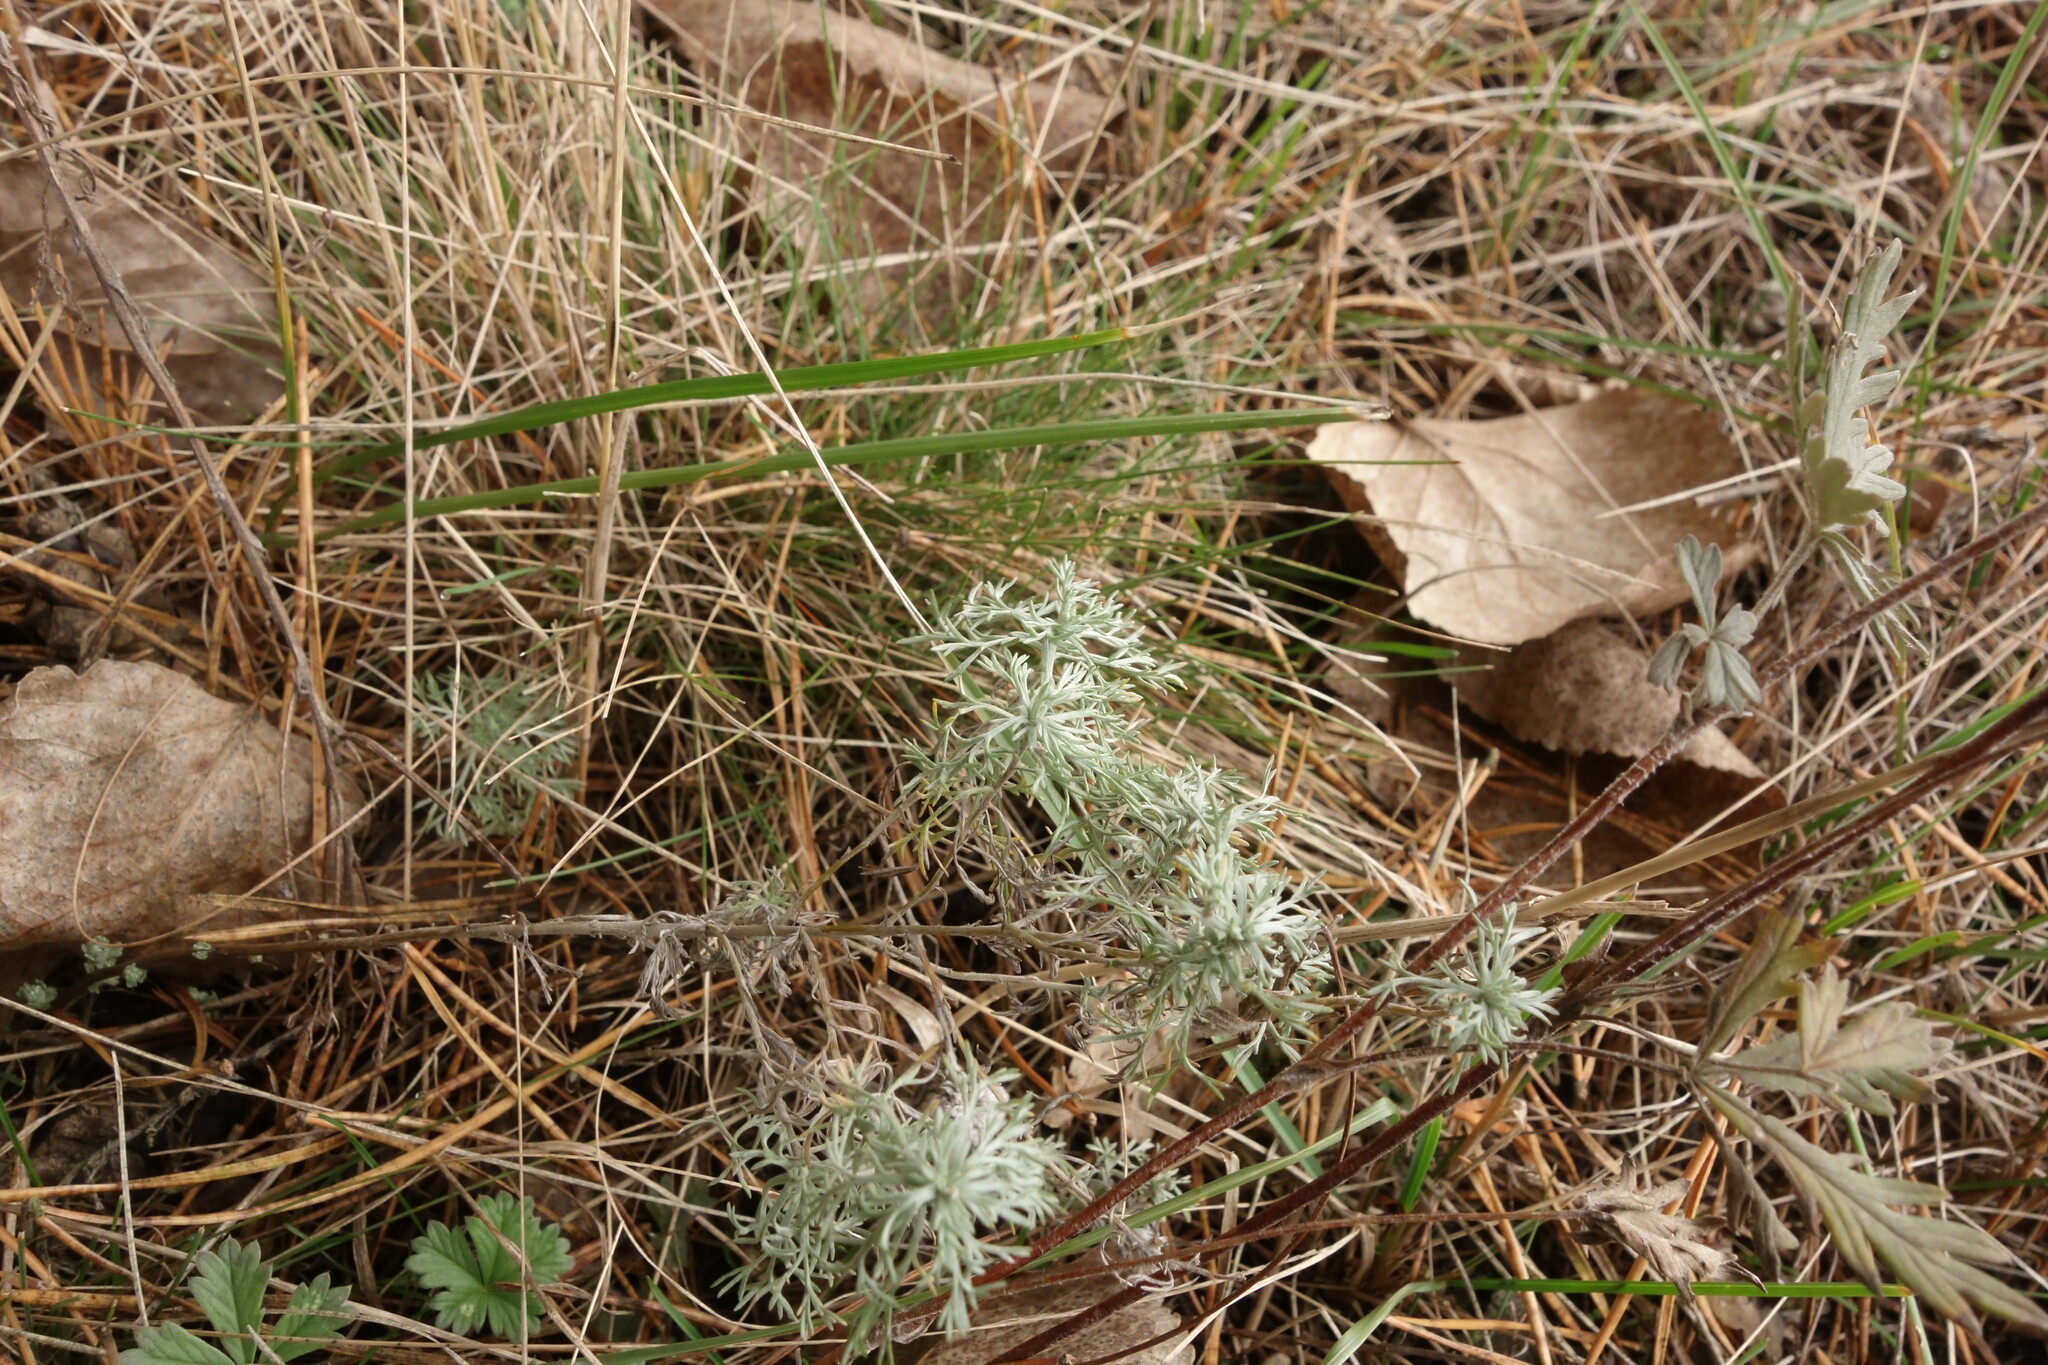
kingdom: Plantae
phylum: Tracheophyta
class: Magnoliopsida
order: Asterales
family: Asteraceae
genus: Artemisia
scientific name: Artemisia austriaca
